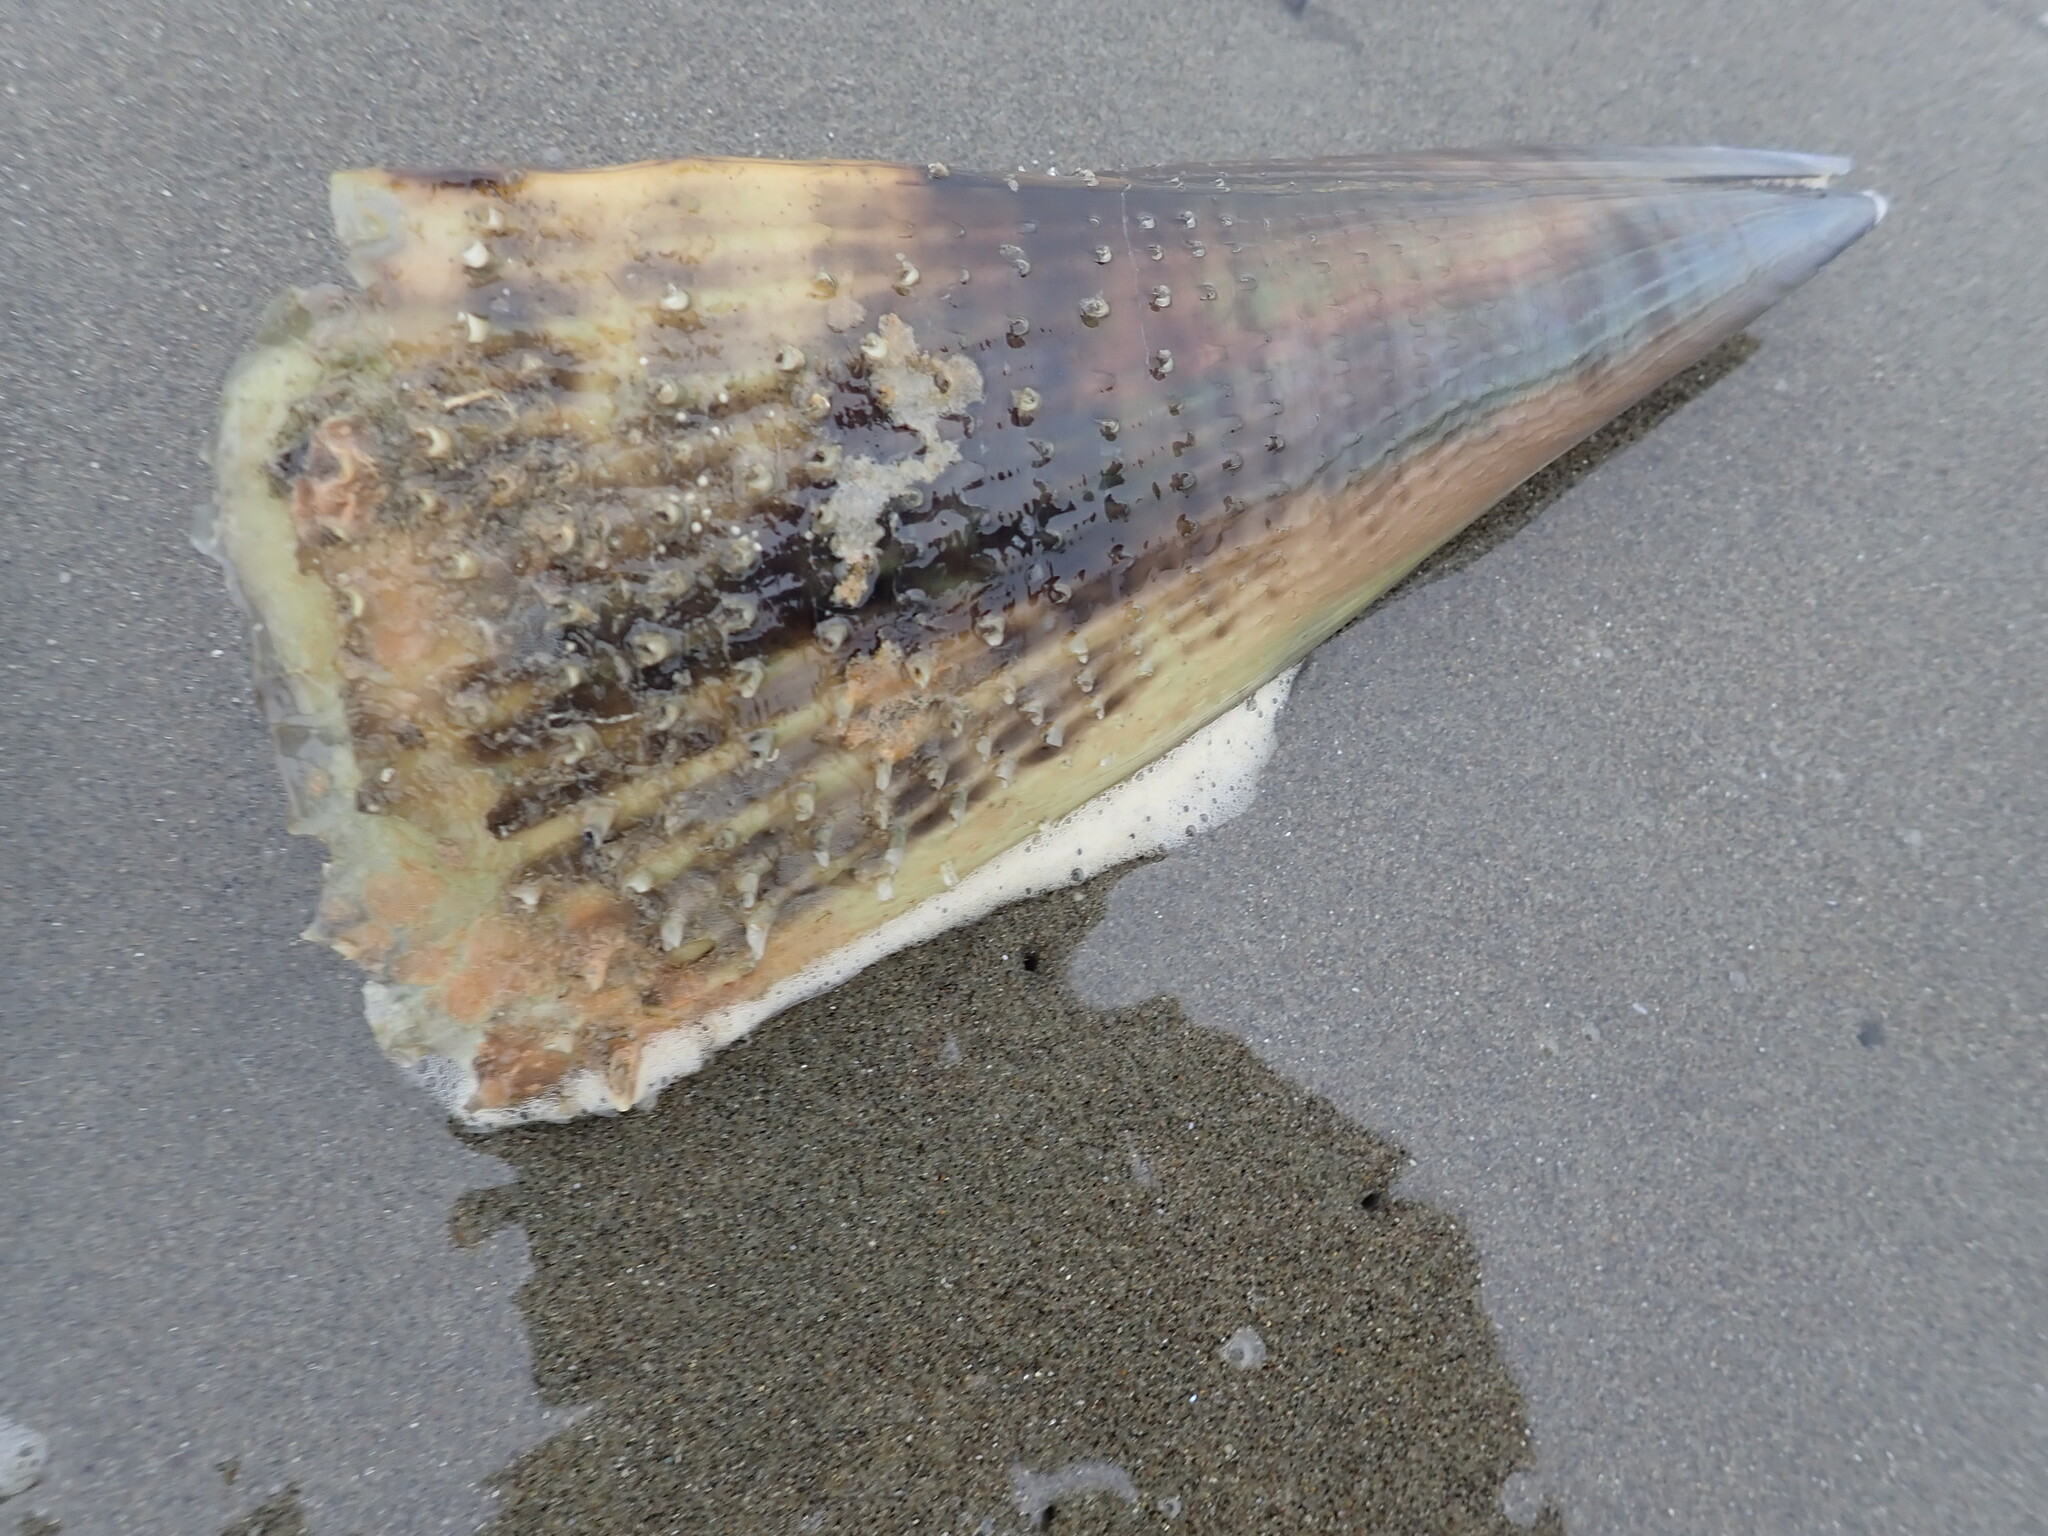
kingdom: Animalia
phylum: Mollusca
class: Bivalvia
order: Ostreida
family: Pinnidae
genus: Atrina
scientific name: Atrina zelandica
